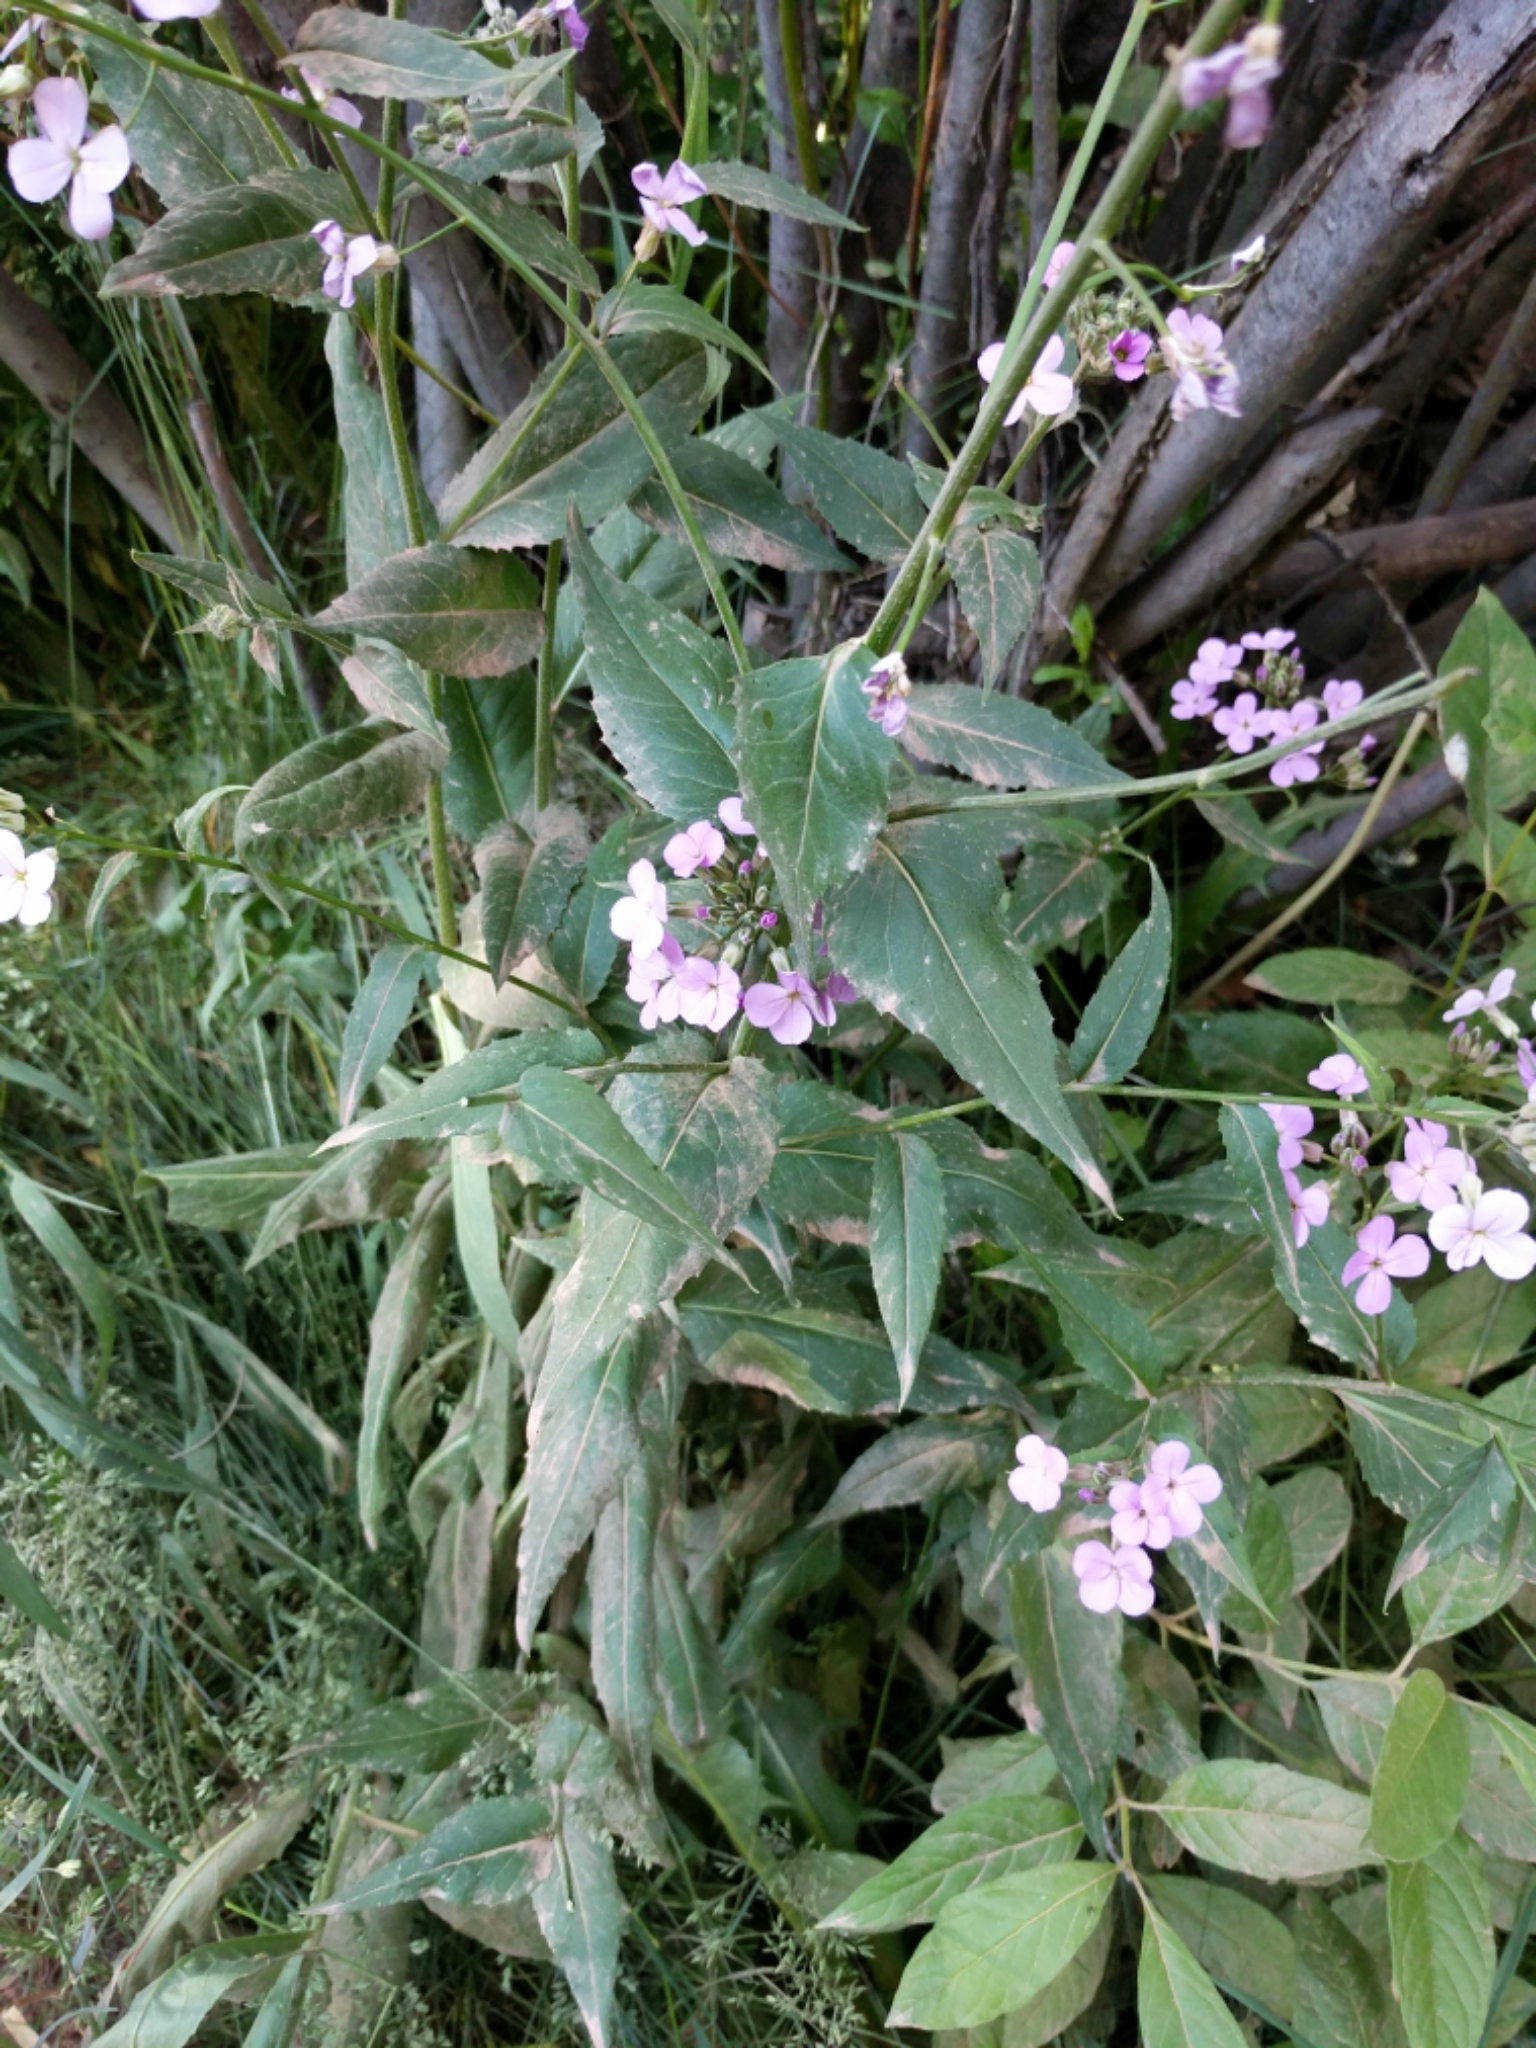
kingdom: Plantae
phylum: Tracheophyta
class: Magnoliopsida
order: Brassicales
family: Brassicaceae
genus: Hesperis
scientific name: Hesperis matronalis
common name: Dame's-violet
